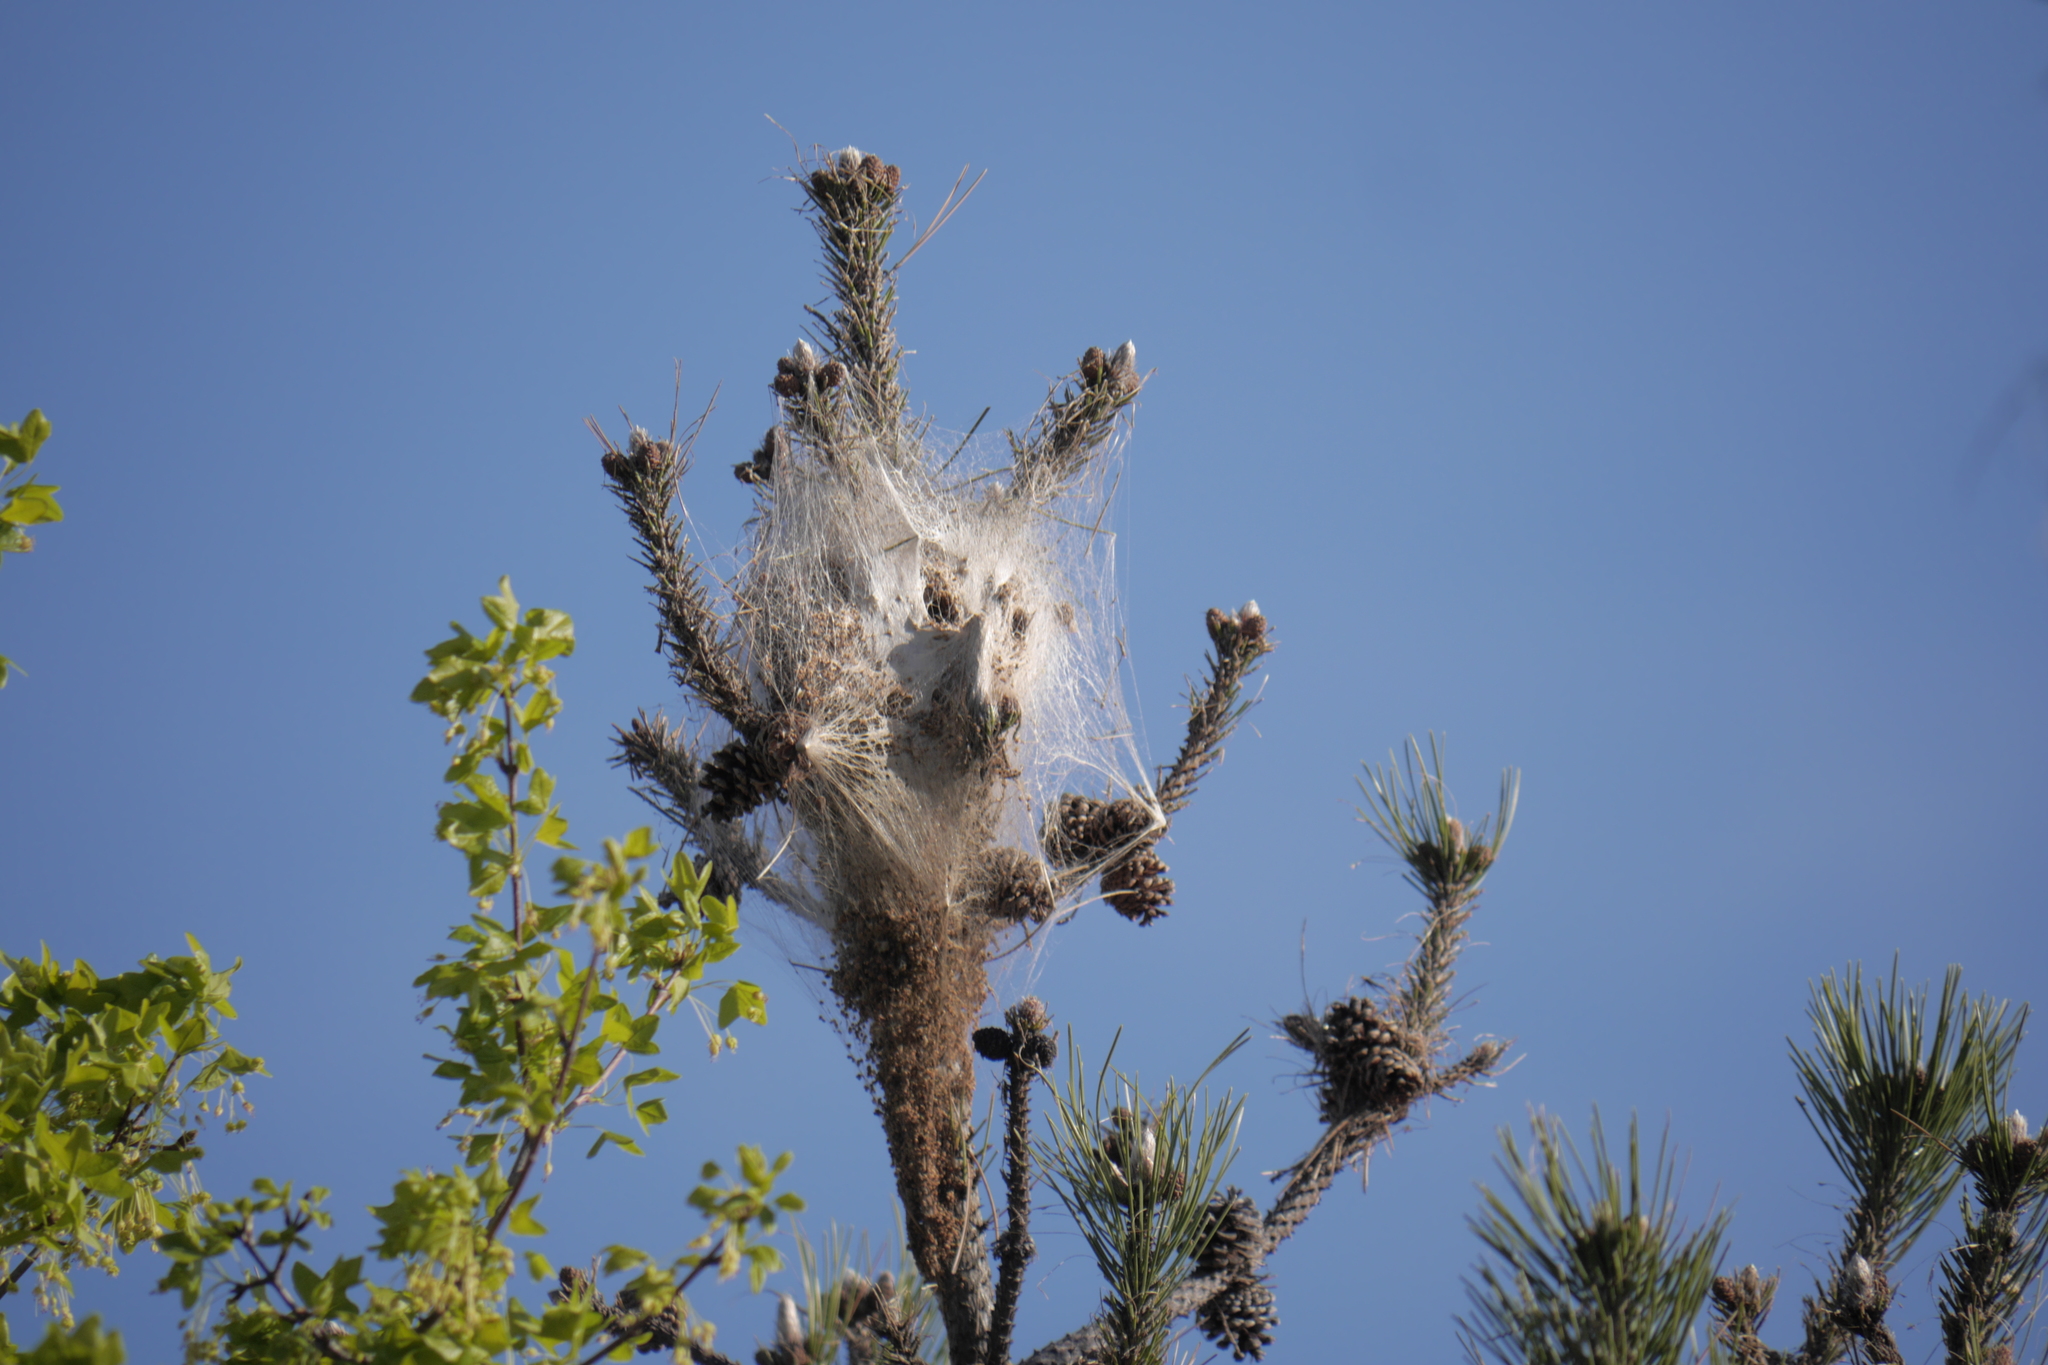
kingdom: Animalia
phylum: Arthropoda
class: Insecta
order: Lepidoptera
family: Notodontidae
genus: Thaumetopoea
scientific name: Thaumetopoea pityocampa
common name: Pine processionary
